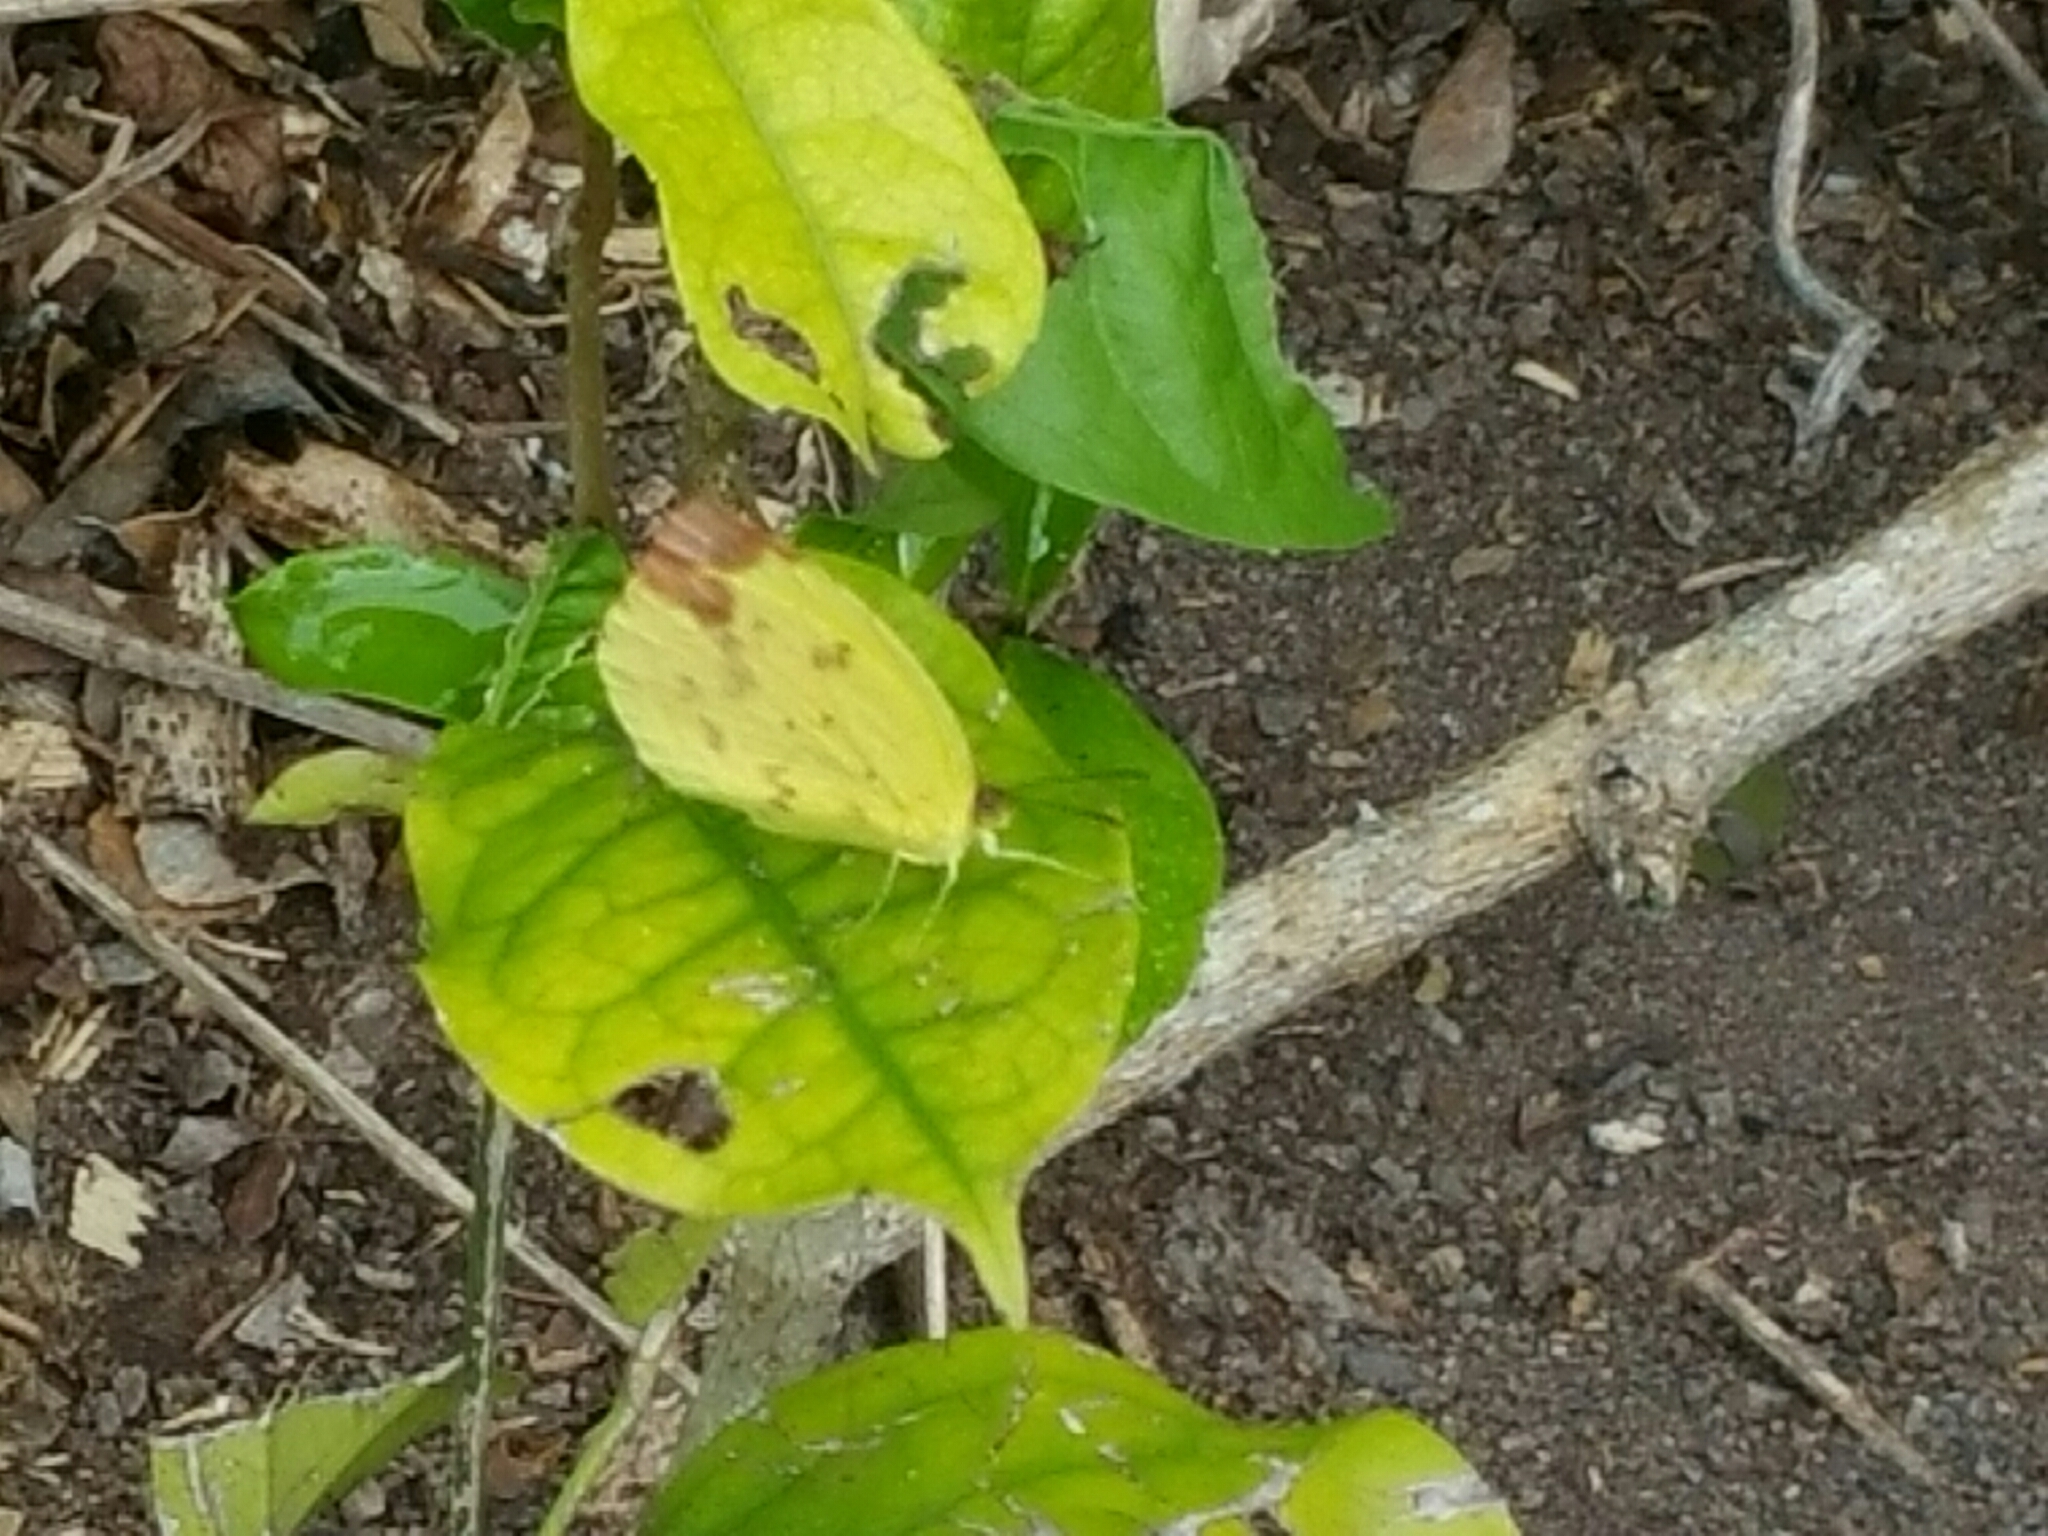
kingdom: Animalia
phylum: Arthropoda
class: Insecta
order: Lepidoptera
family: Pieridae
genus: Pyrisitia
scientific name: Pyrisitia dina
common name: Dina yellow
